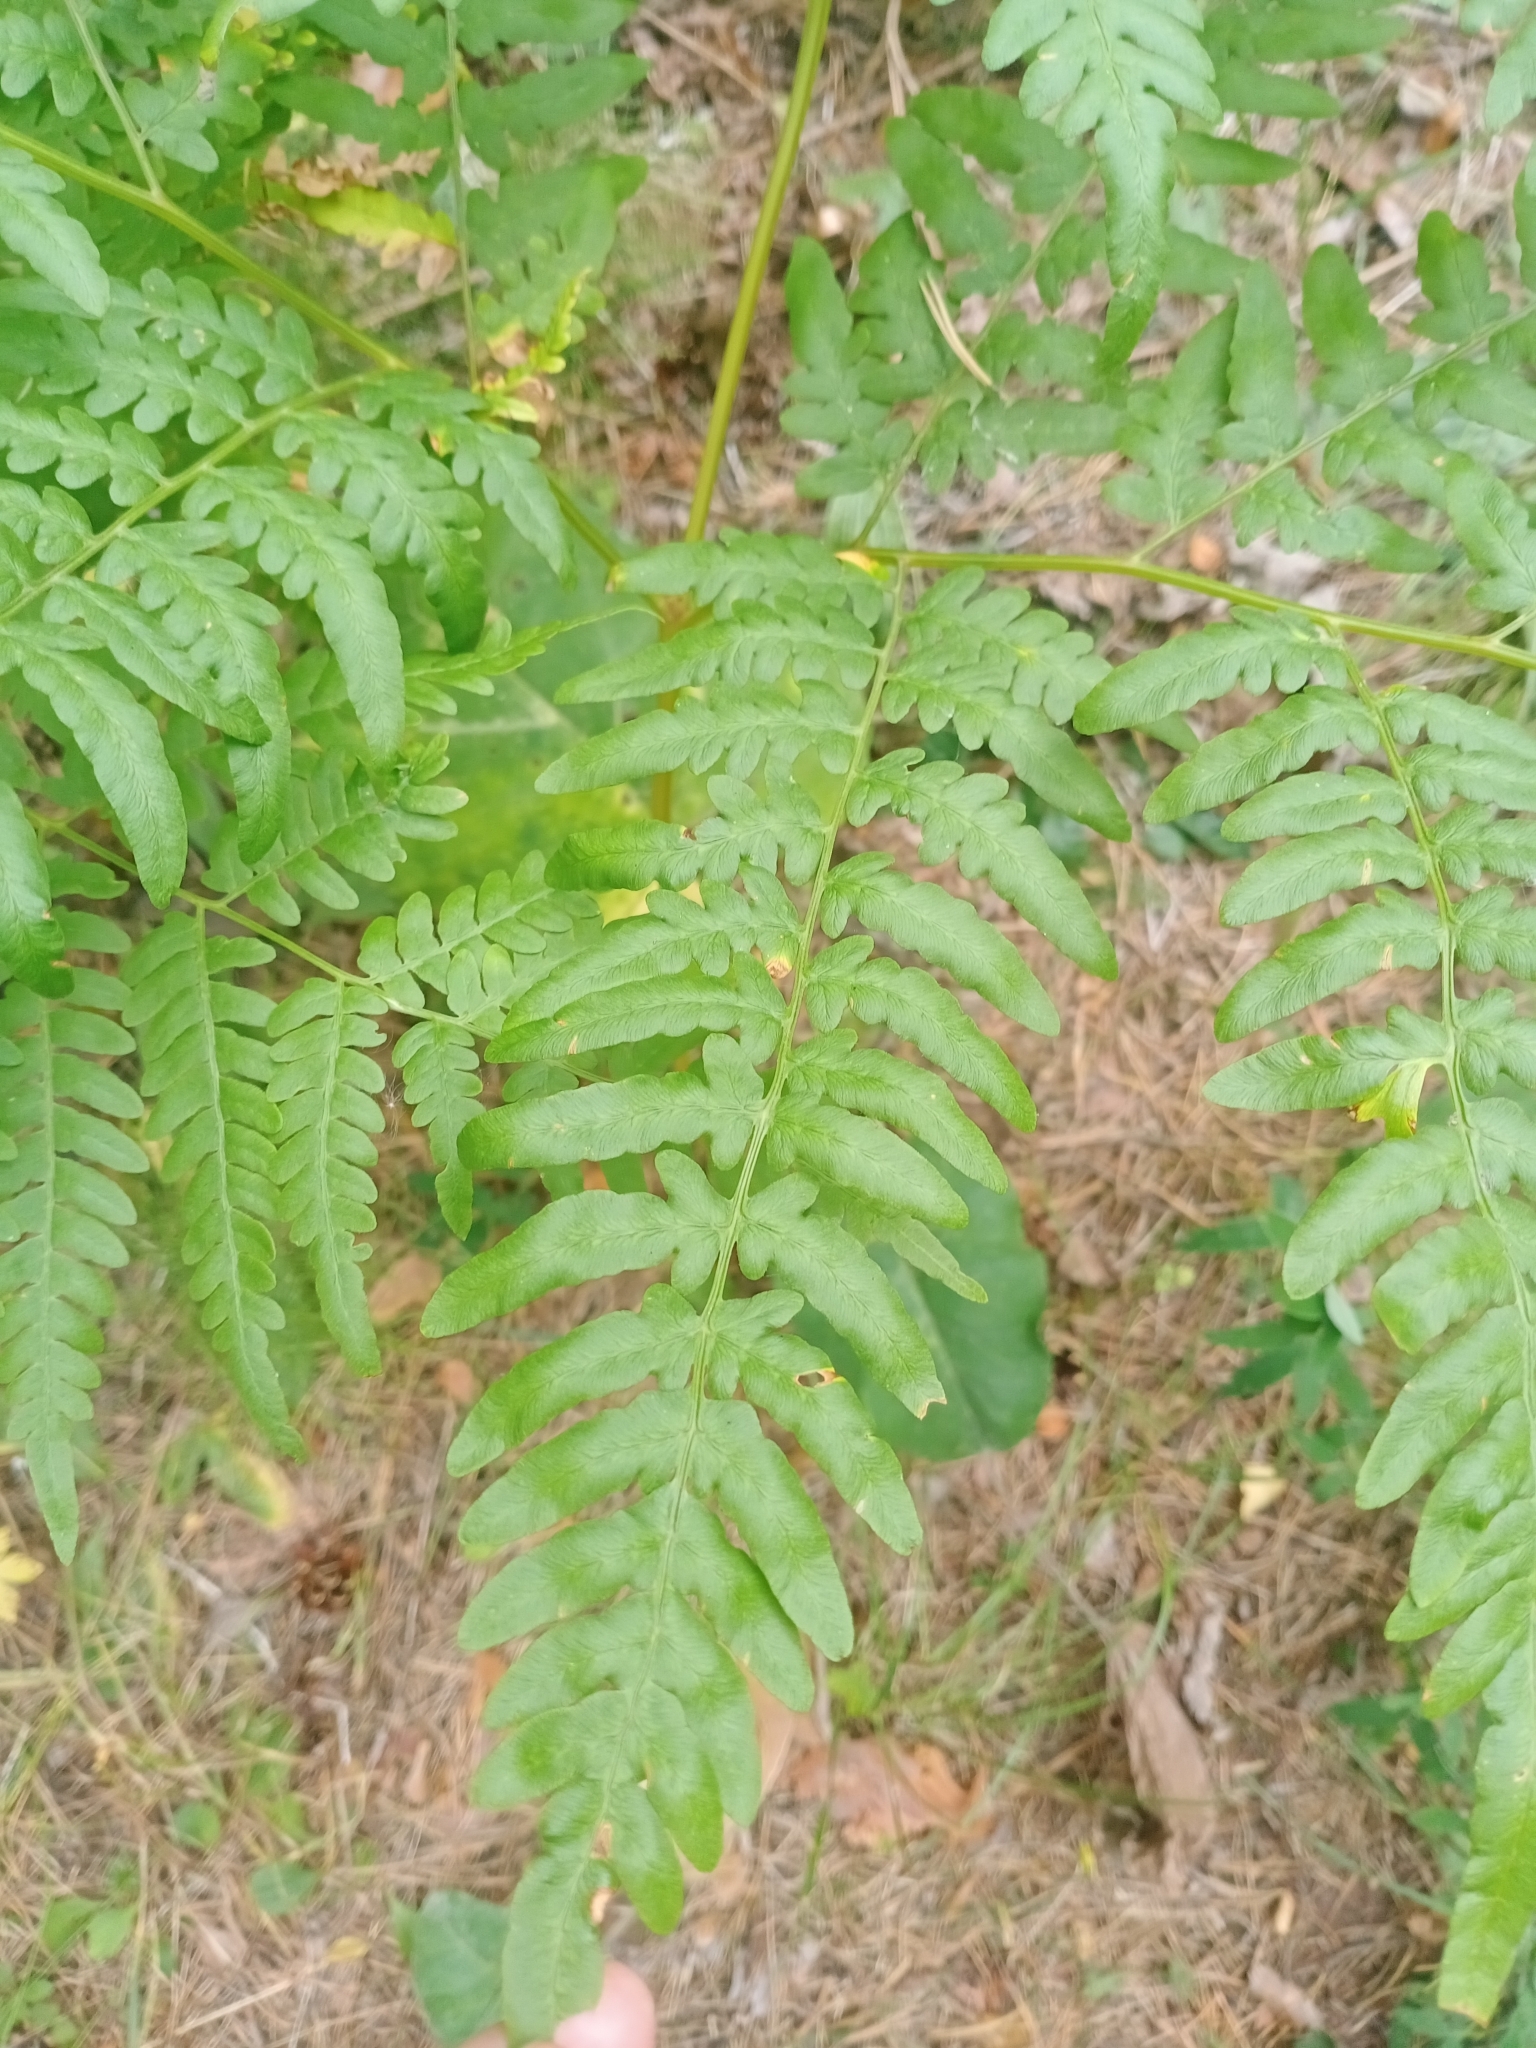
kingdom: Plantae
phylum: Tracheophyta
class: Polypodiopsida
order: Polypodiales
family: Dennstaedtiaceae
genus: Pteridium
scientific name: Pteridium aquilinum
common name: Bracken
